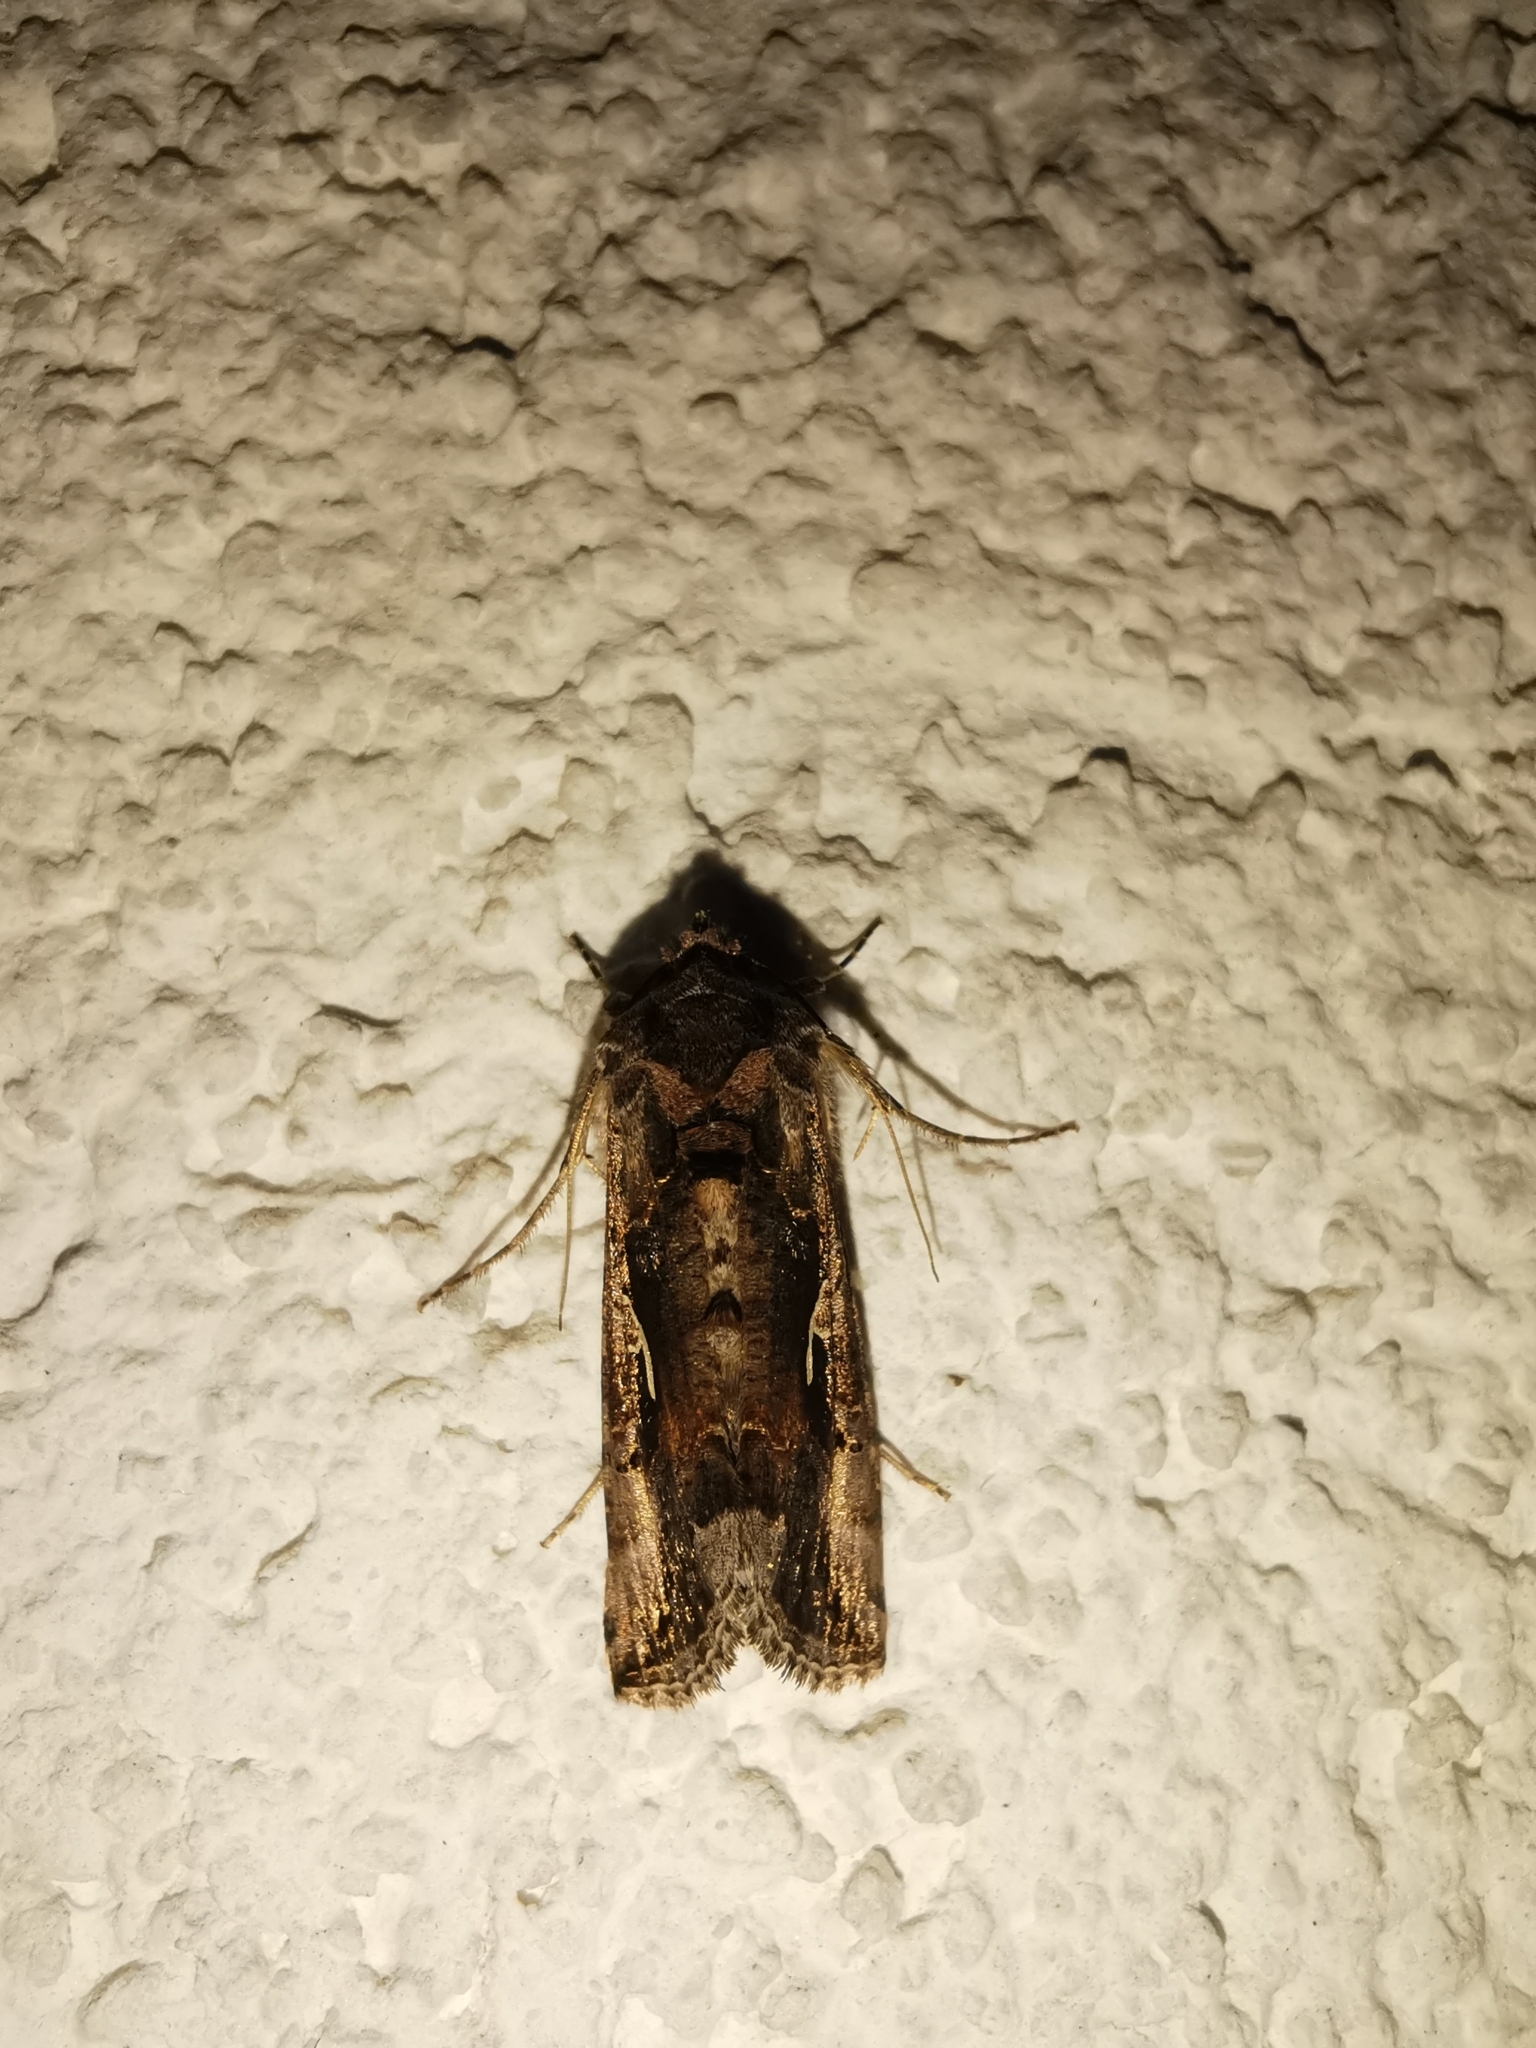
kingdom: Animalia
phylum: Arthropoda
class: Insecta
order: Lepidoptera
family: Noctuidae
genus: Autographa
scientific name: Autographa gamma
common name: Silver y
